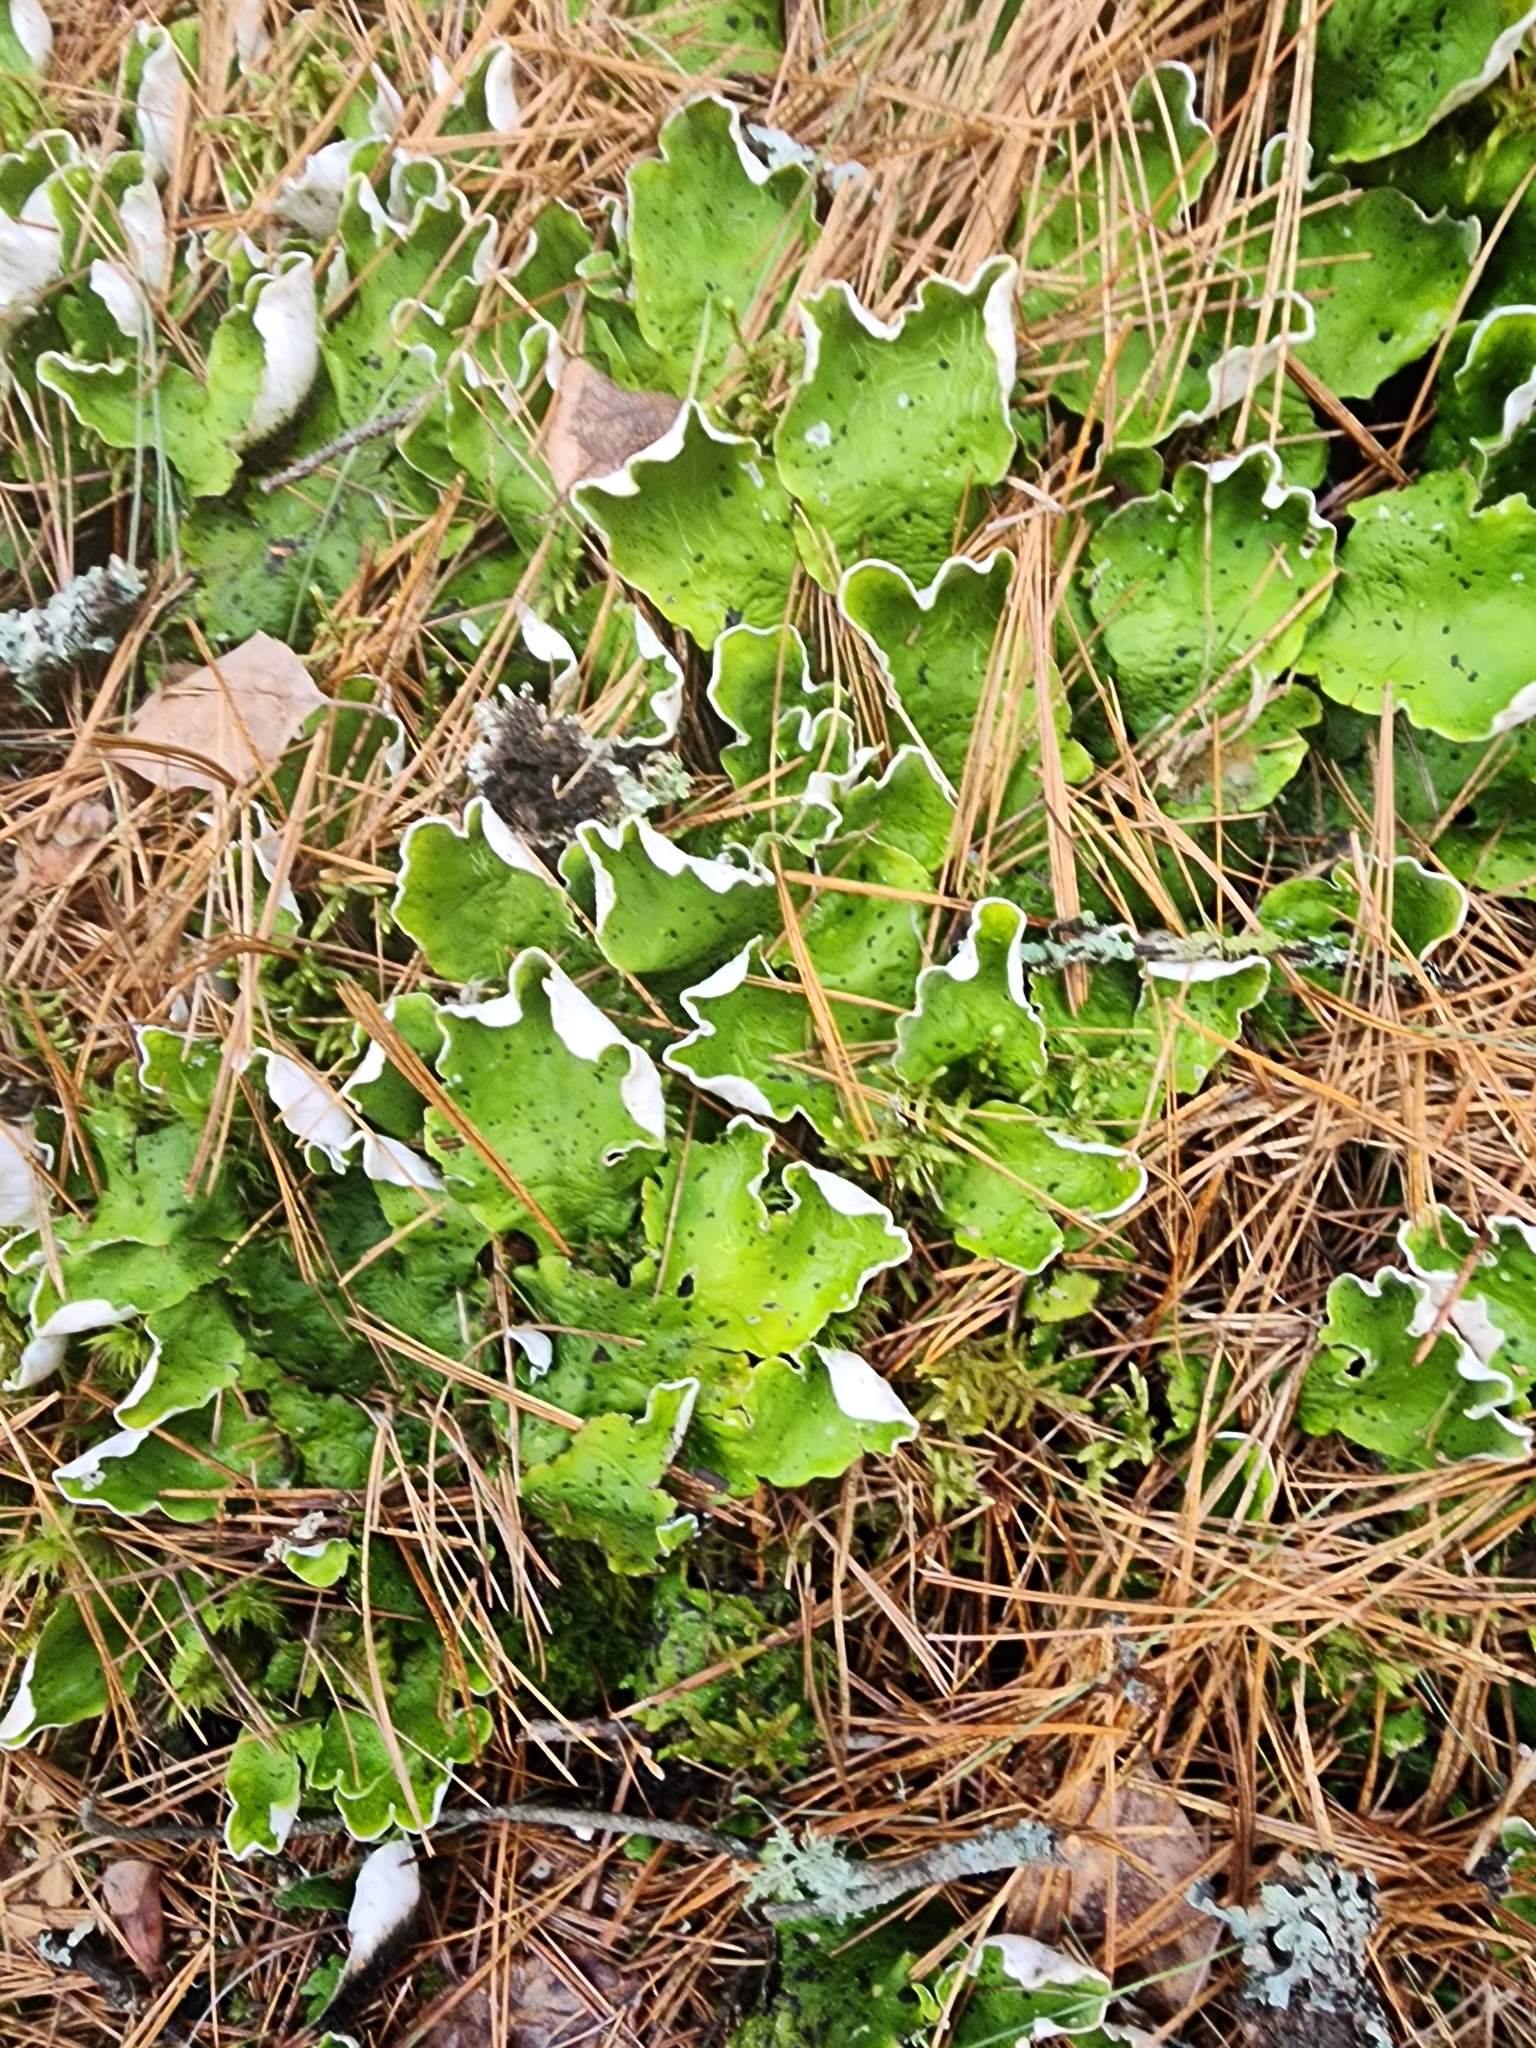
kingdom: Fungi
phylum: Ascomycota
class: Lecanoromycetes
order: Peltigerales
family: Peltigeraceae
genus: Peltigera
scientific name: Peltigera aphthosa
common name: Common freckle pelt lichen
